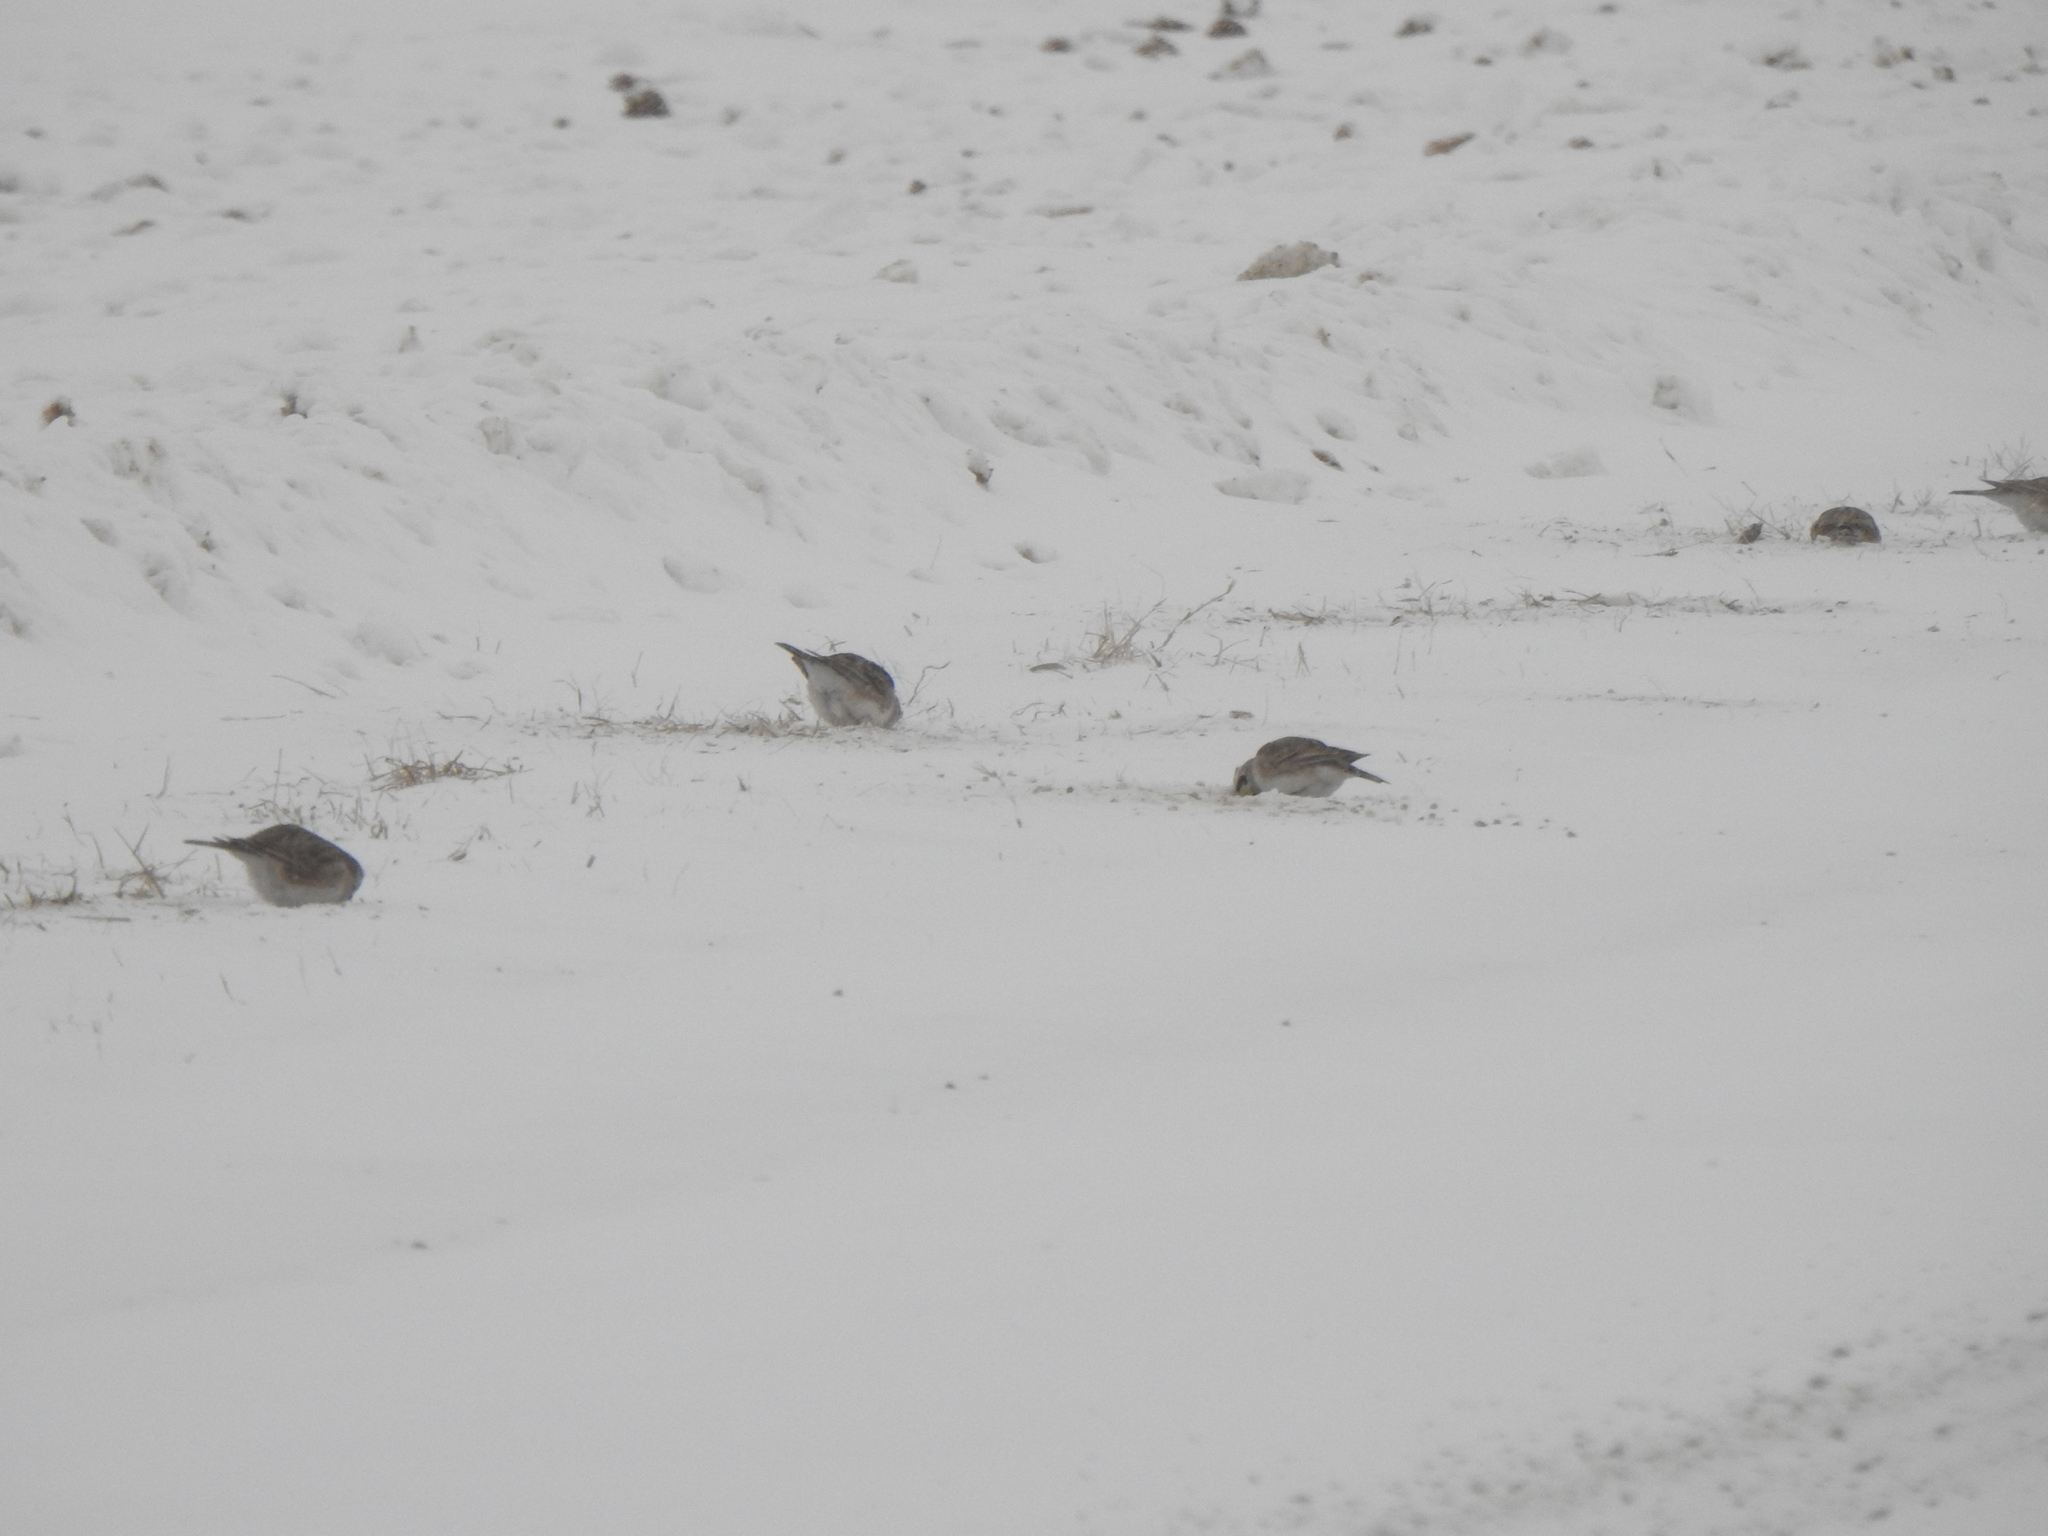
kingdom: Animalia
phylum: Chordata
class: Aves
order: Passeriformes
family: Alaudidae
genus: Eremophila
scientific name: Eremophila alpestris
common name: Horned lark
